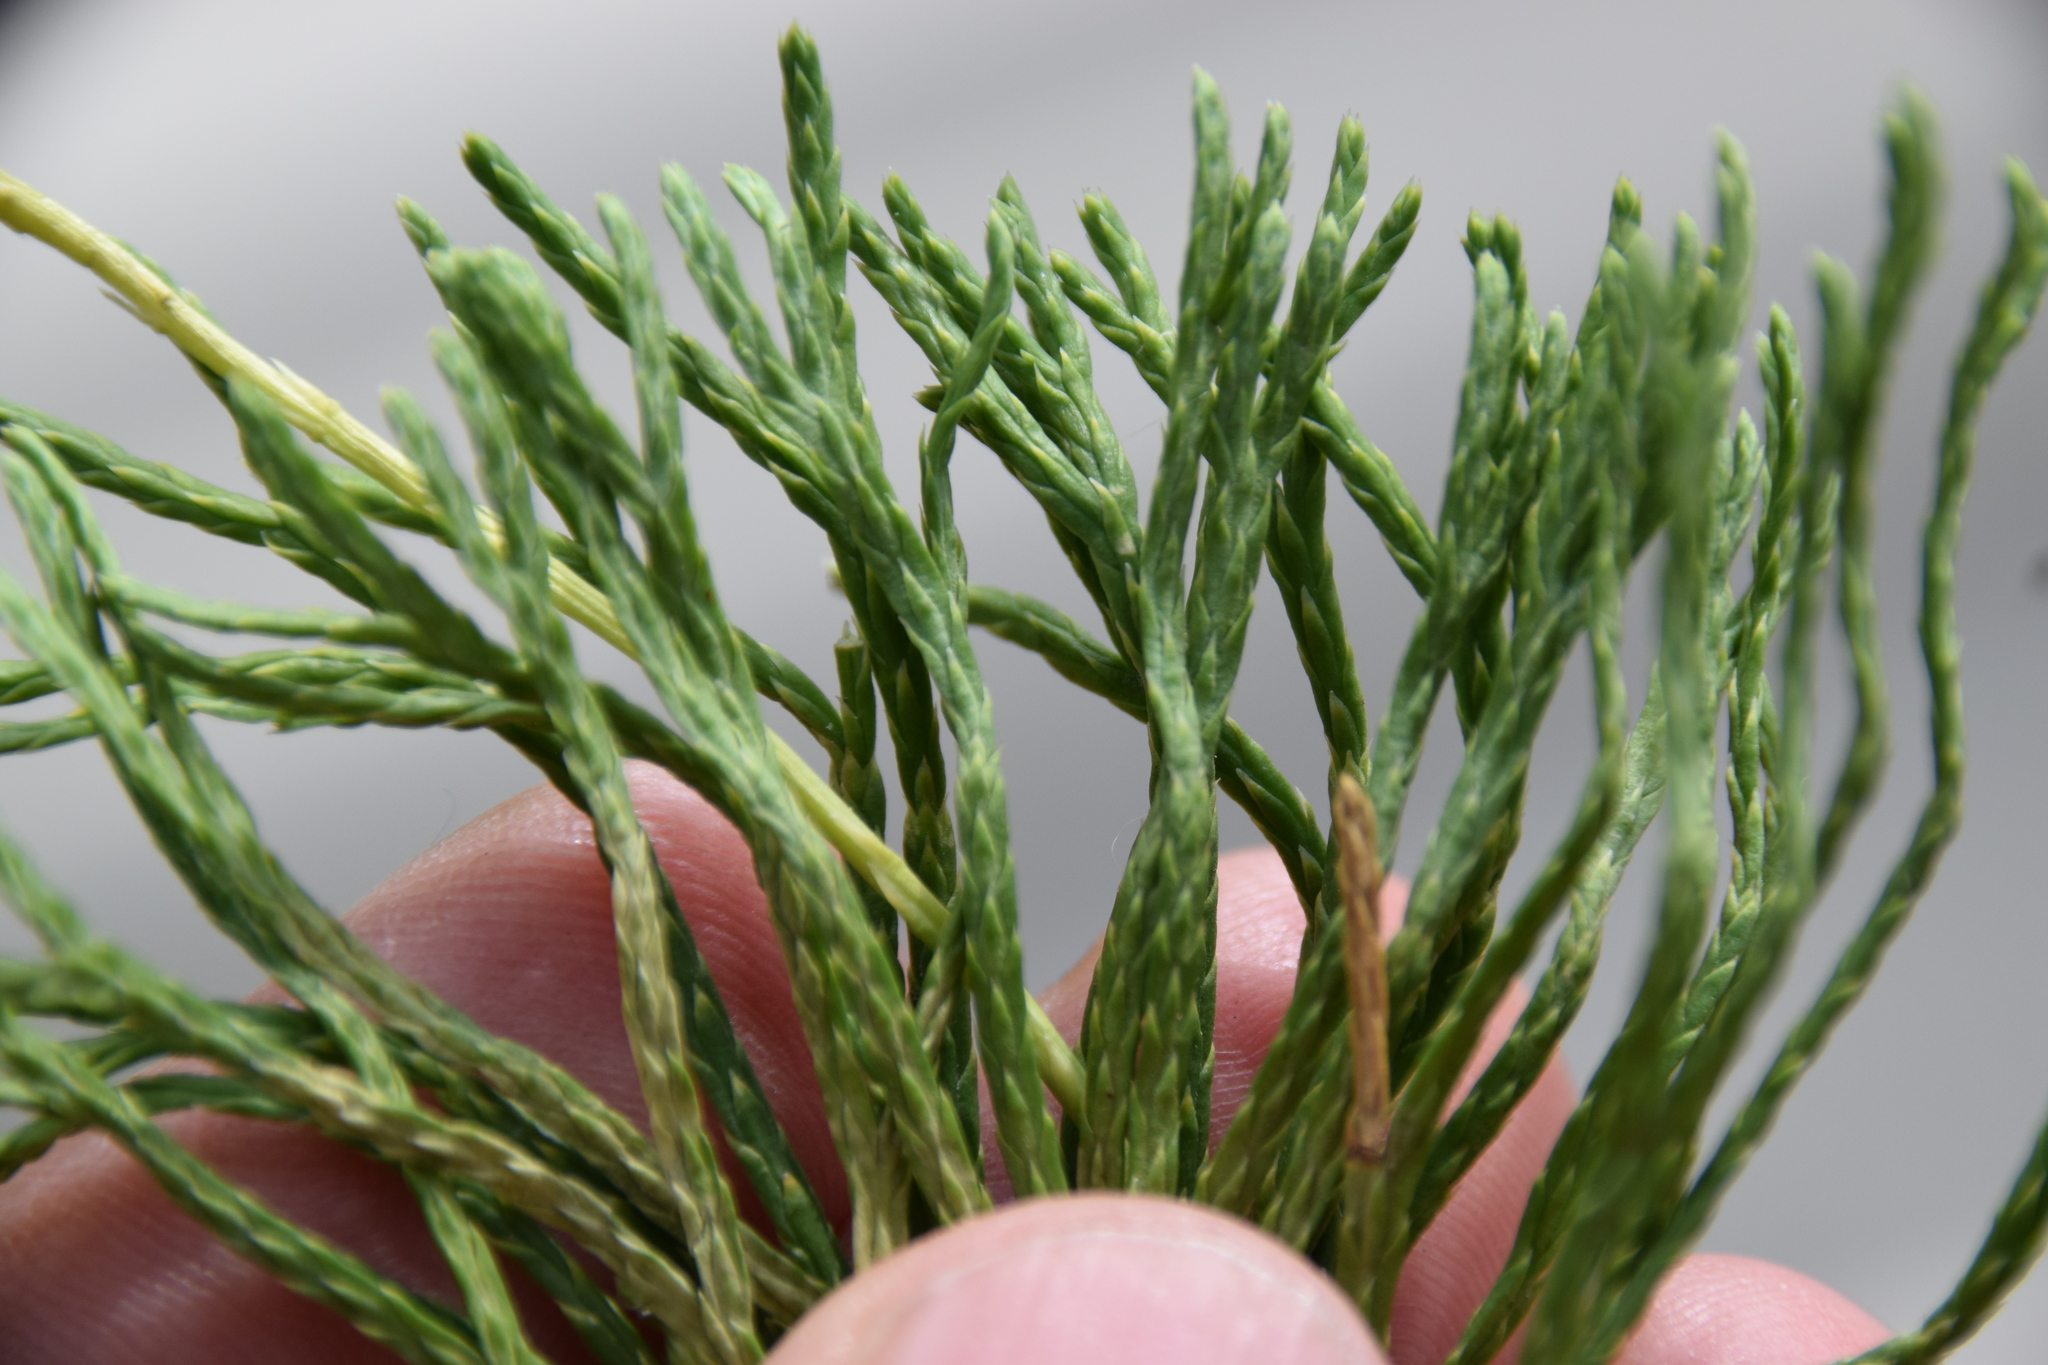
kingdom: Plantae
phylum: Tracheophyta
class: Lycopodiopsida
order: Lycopodiales
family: Lycopodiaceae
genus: Diphasiastrum
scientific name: Diphasiastrum tristachyum
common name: Blue ground-cedar
